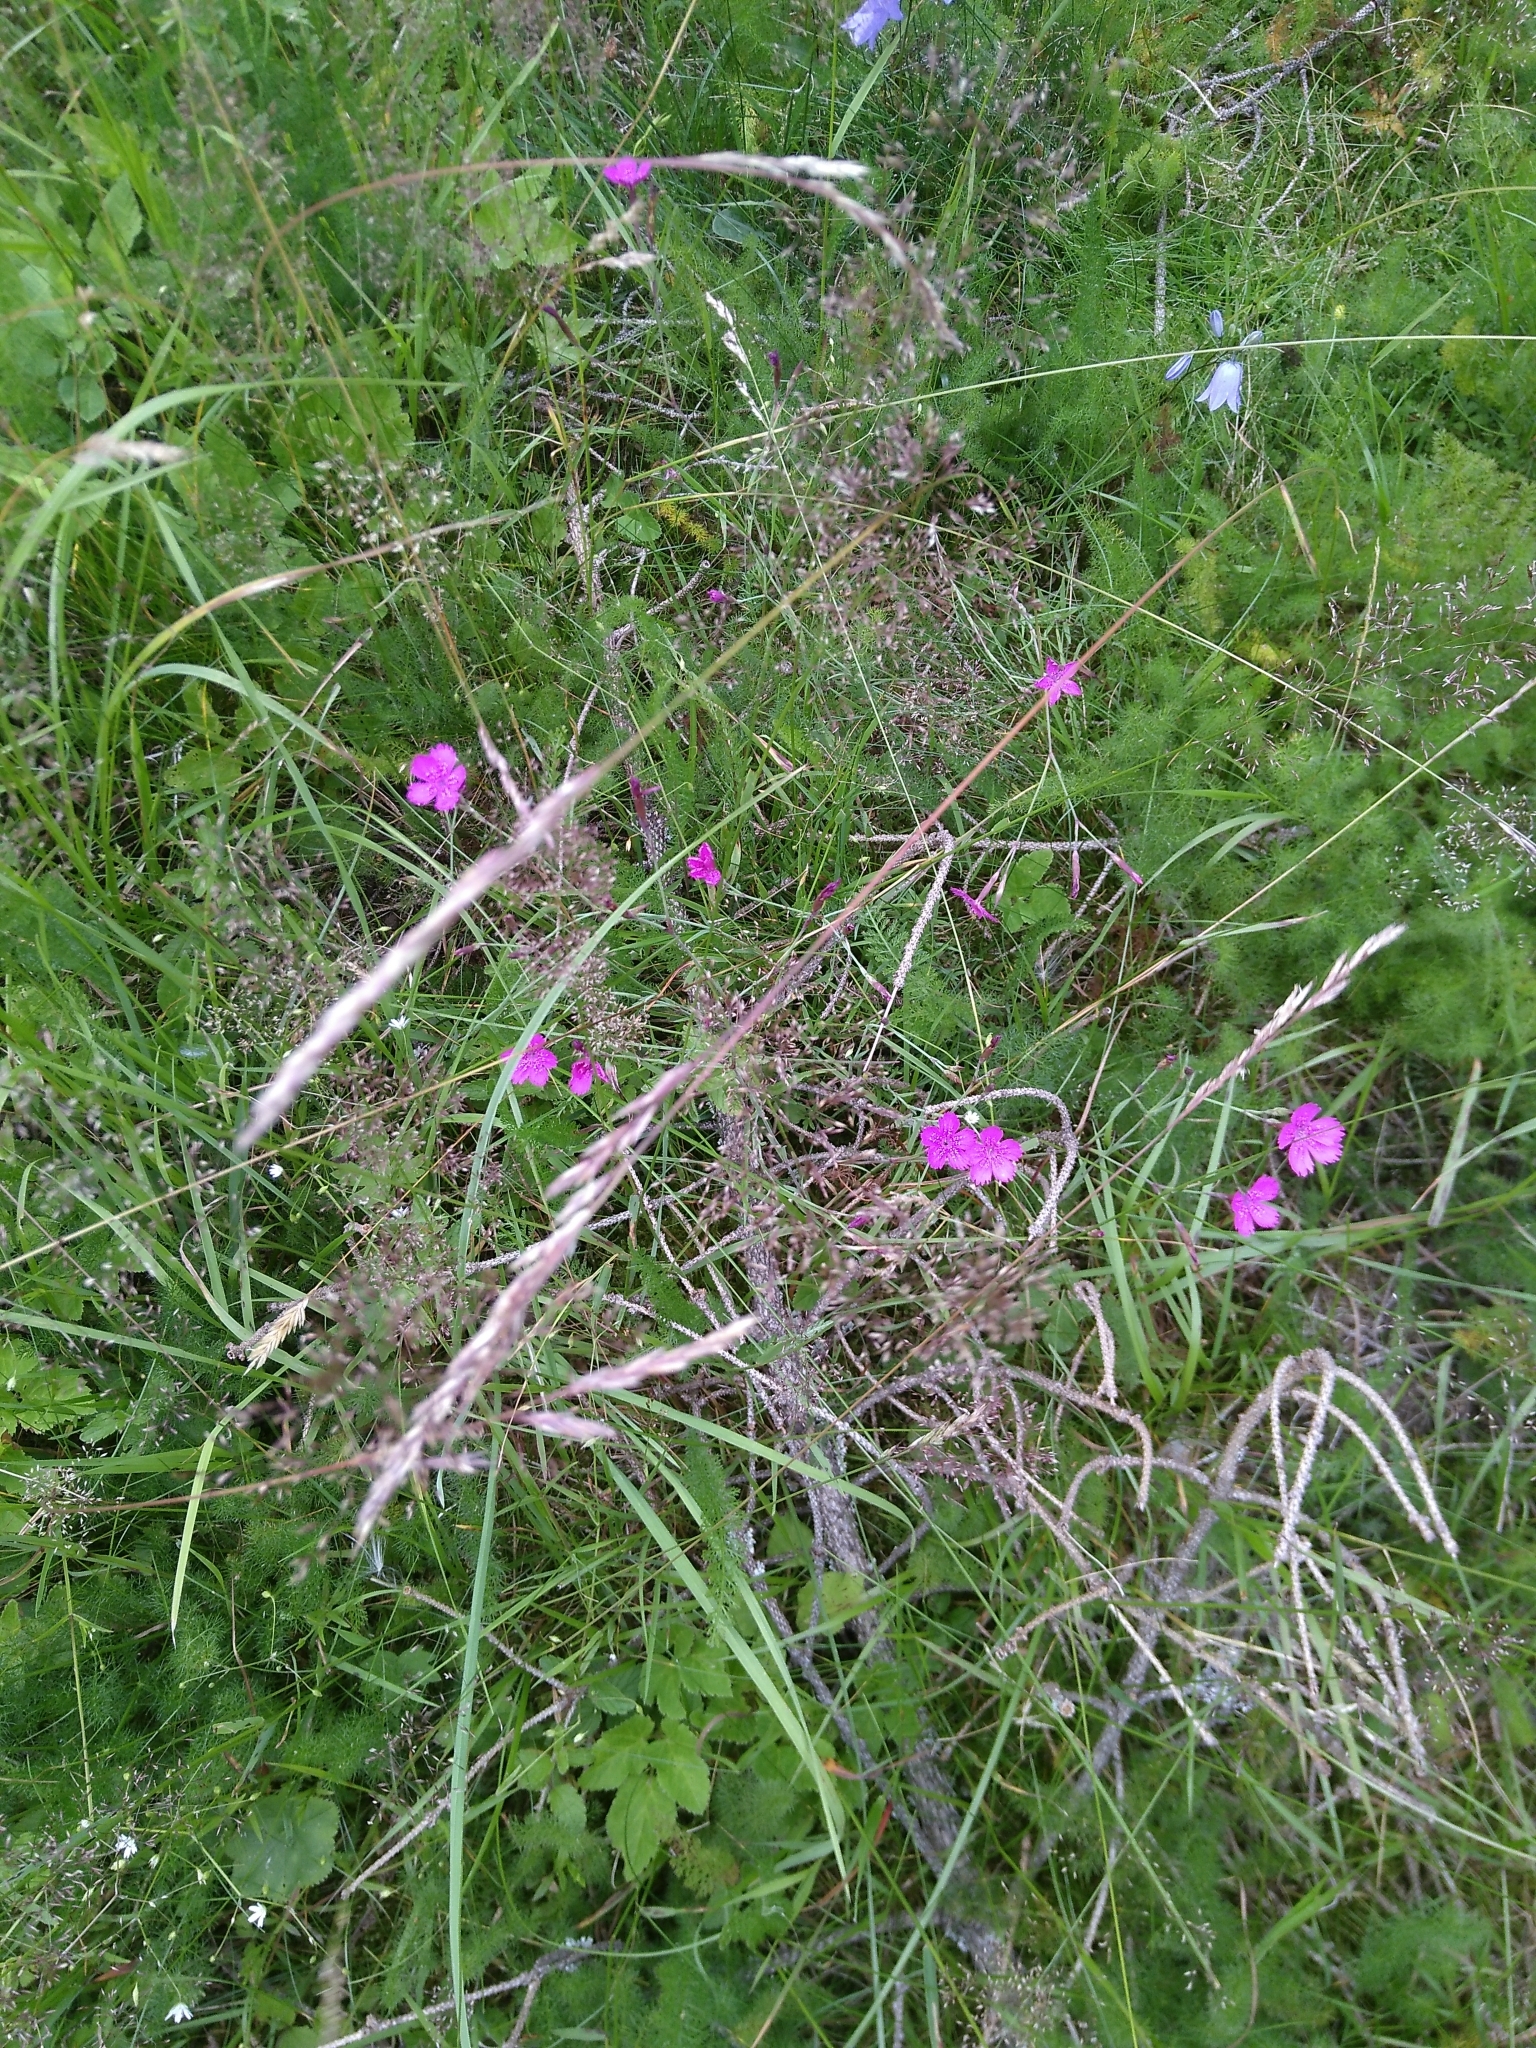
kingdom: Plantae
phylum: Tracheophyta
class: Magnoliopsida
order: Caryophyllales
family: Caryophyllaceae
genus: Dianthus
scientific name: Dianthus deltoides
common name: Maiden pink
